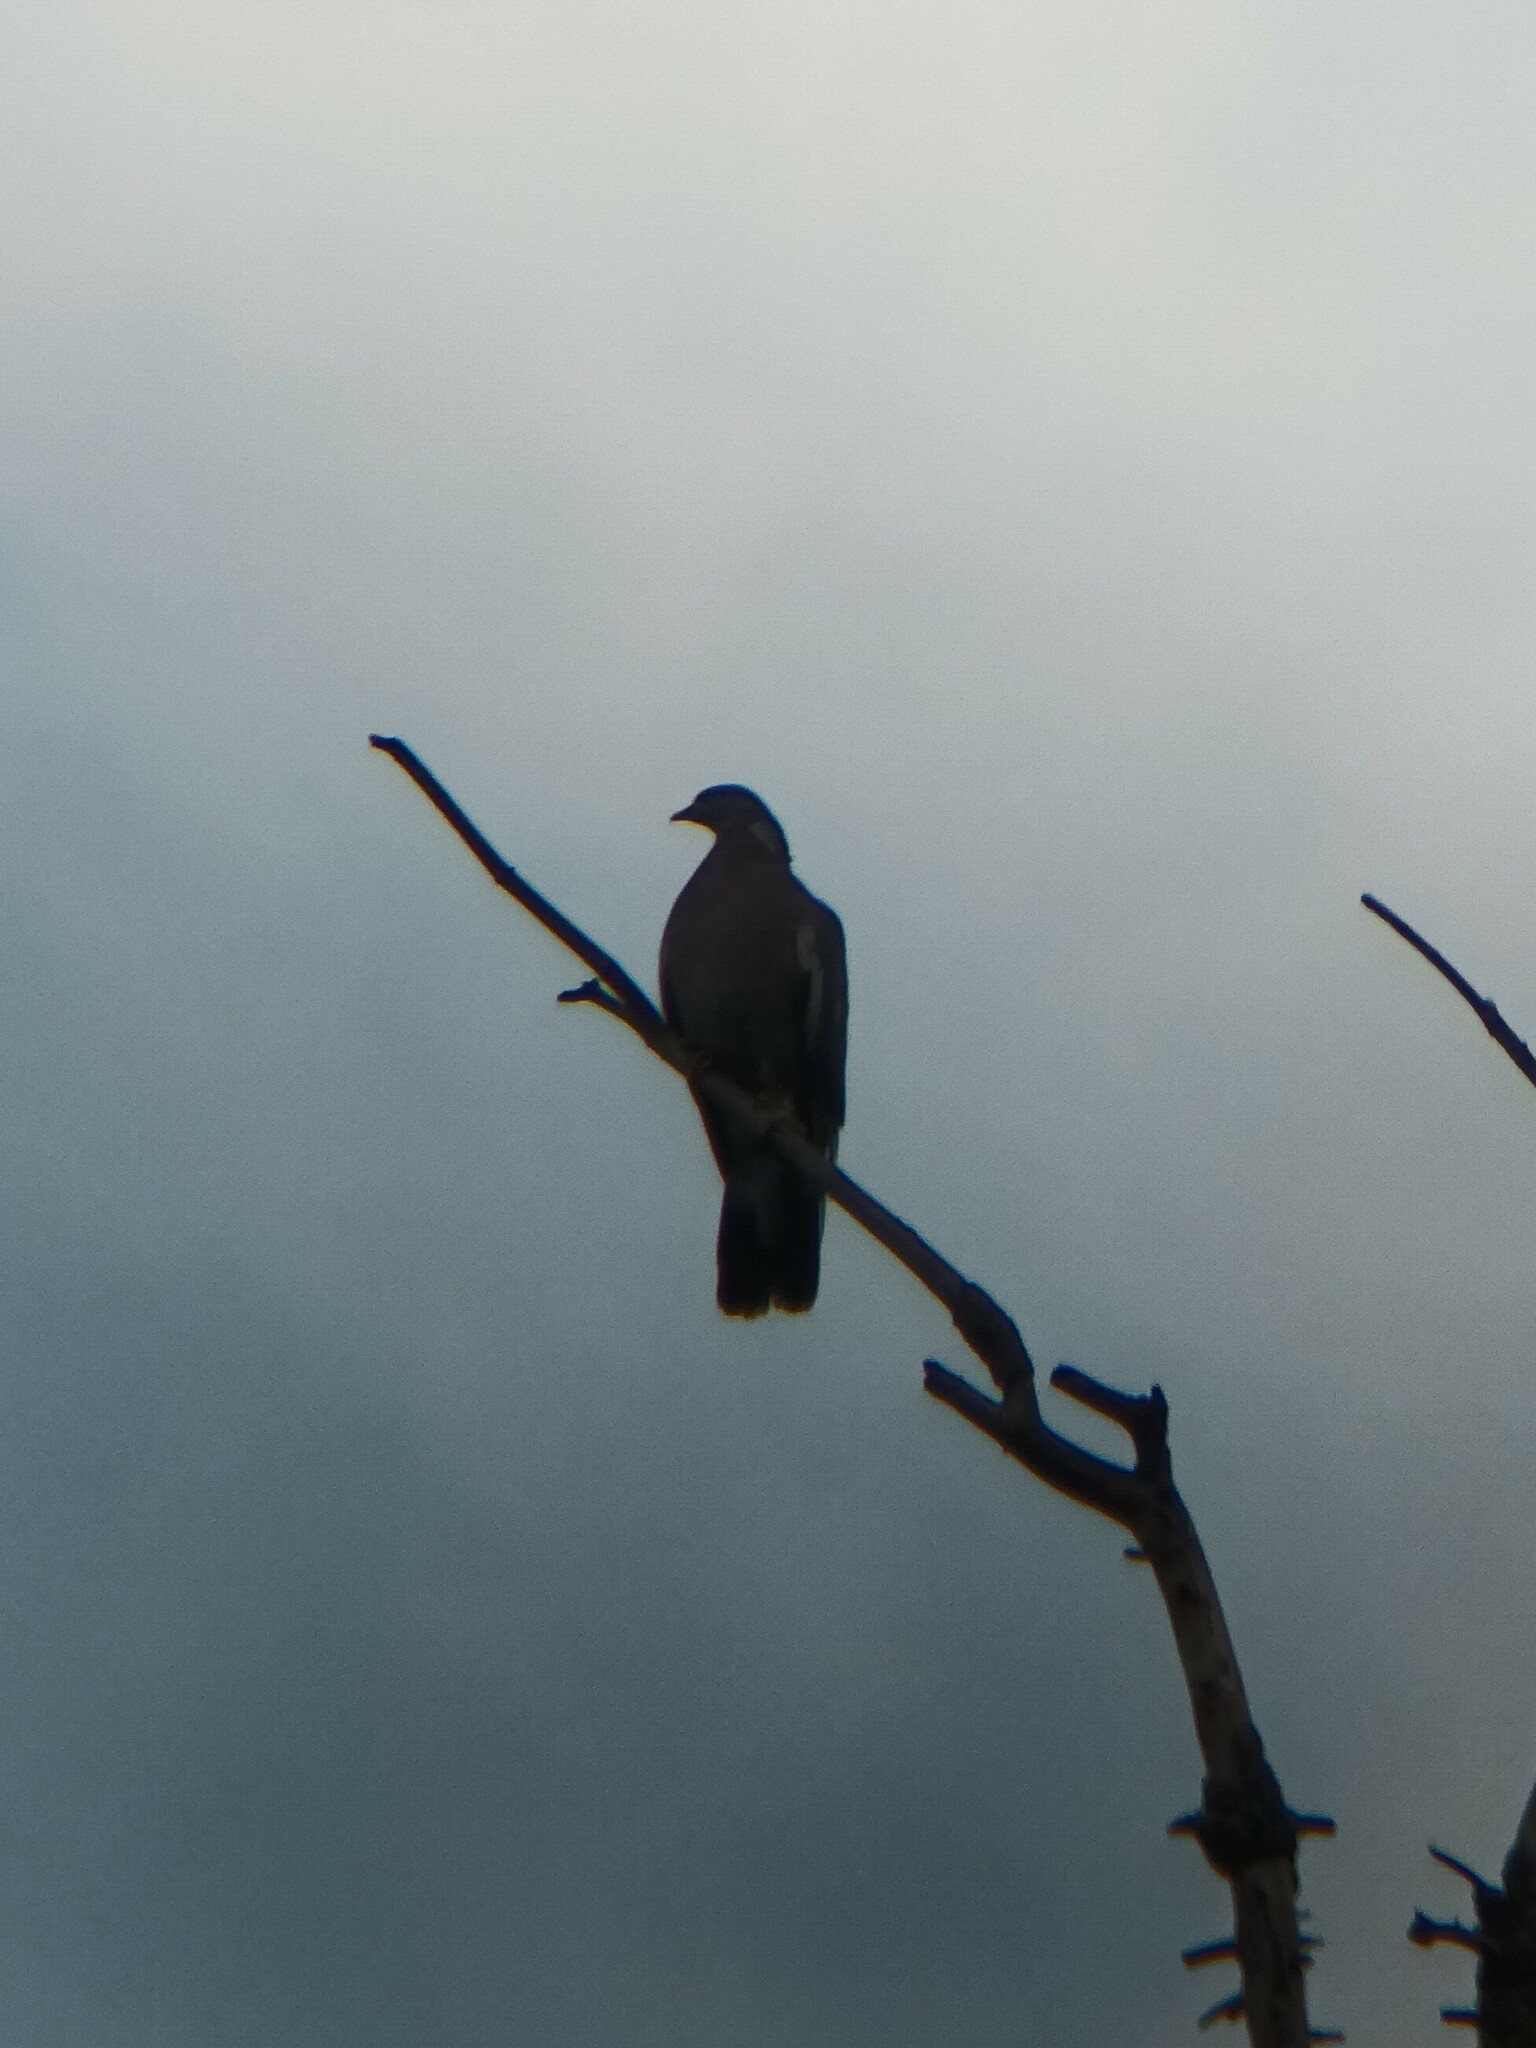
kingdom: Animalia
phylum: Chordata
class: Aves
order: Columbiformes
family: Columbidae
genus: Columba
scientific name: Columba palumbus
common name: Common wood pigeon
